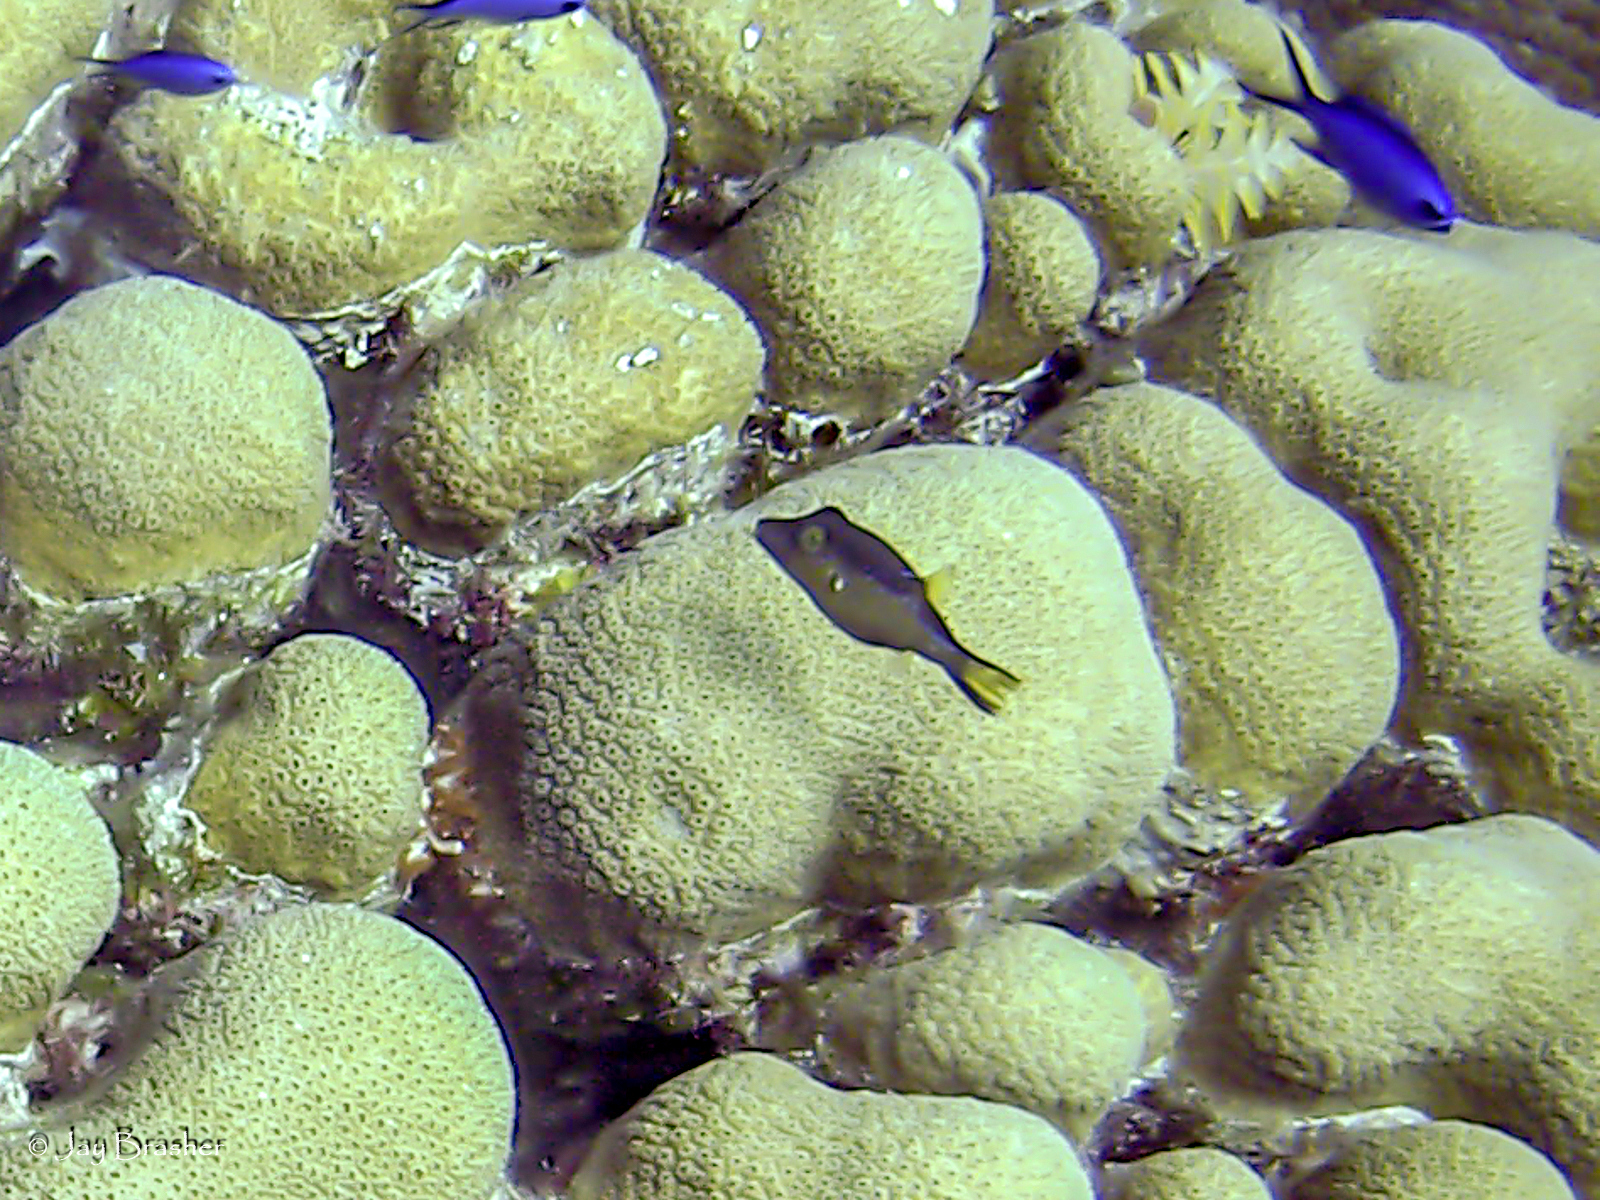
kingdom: Animalia
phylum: Chordata
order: Tetraodontiformes
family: Tetraodontidae
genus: Canthigaster
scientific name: Canthigaster rostrata
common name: Caribbean sharpnose-puffer
